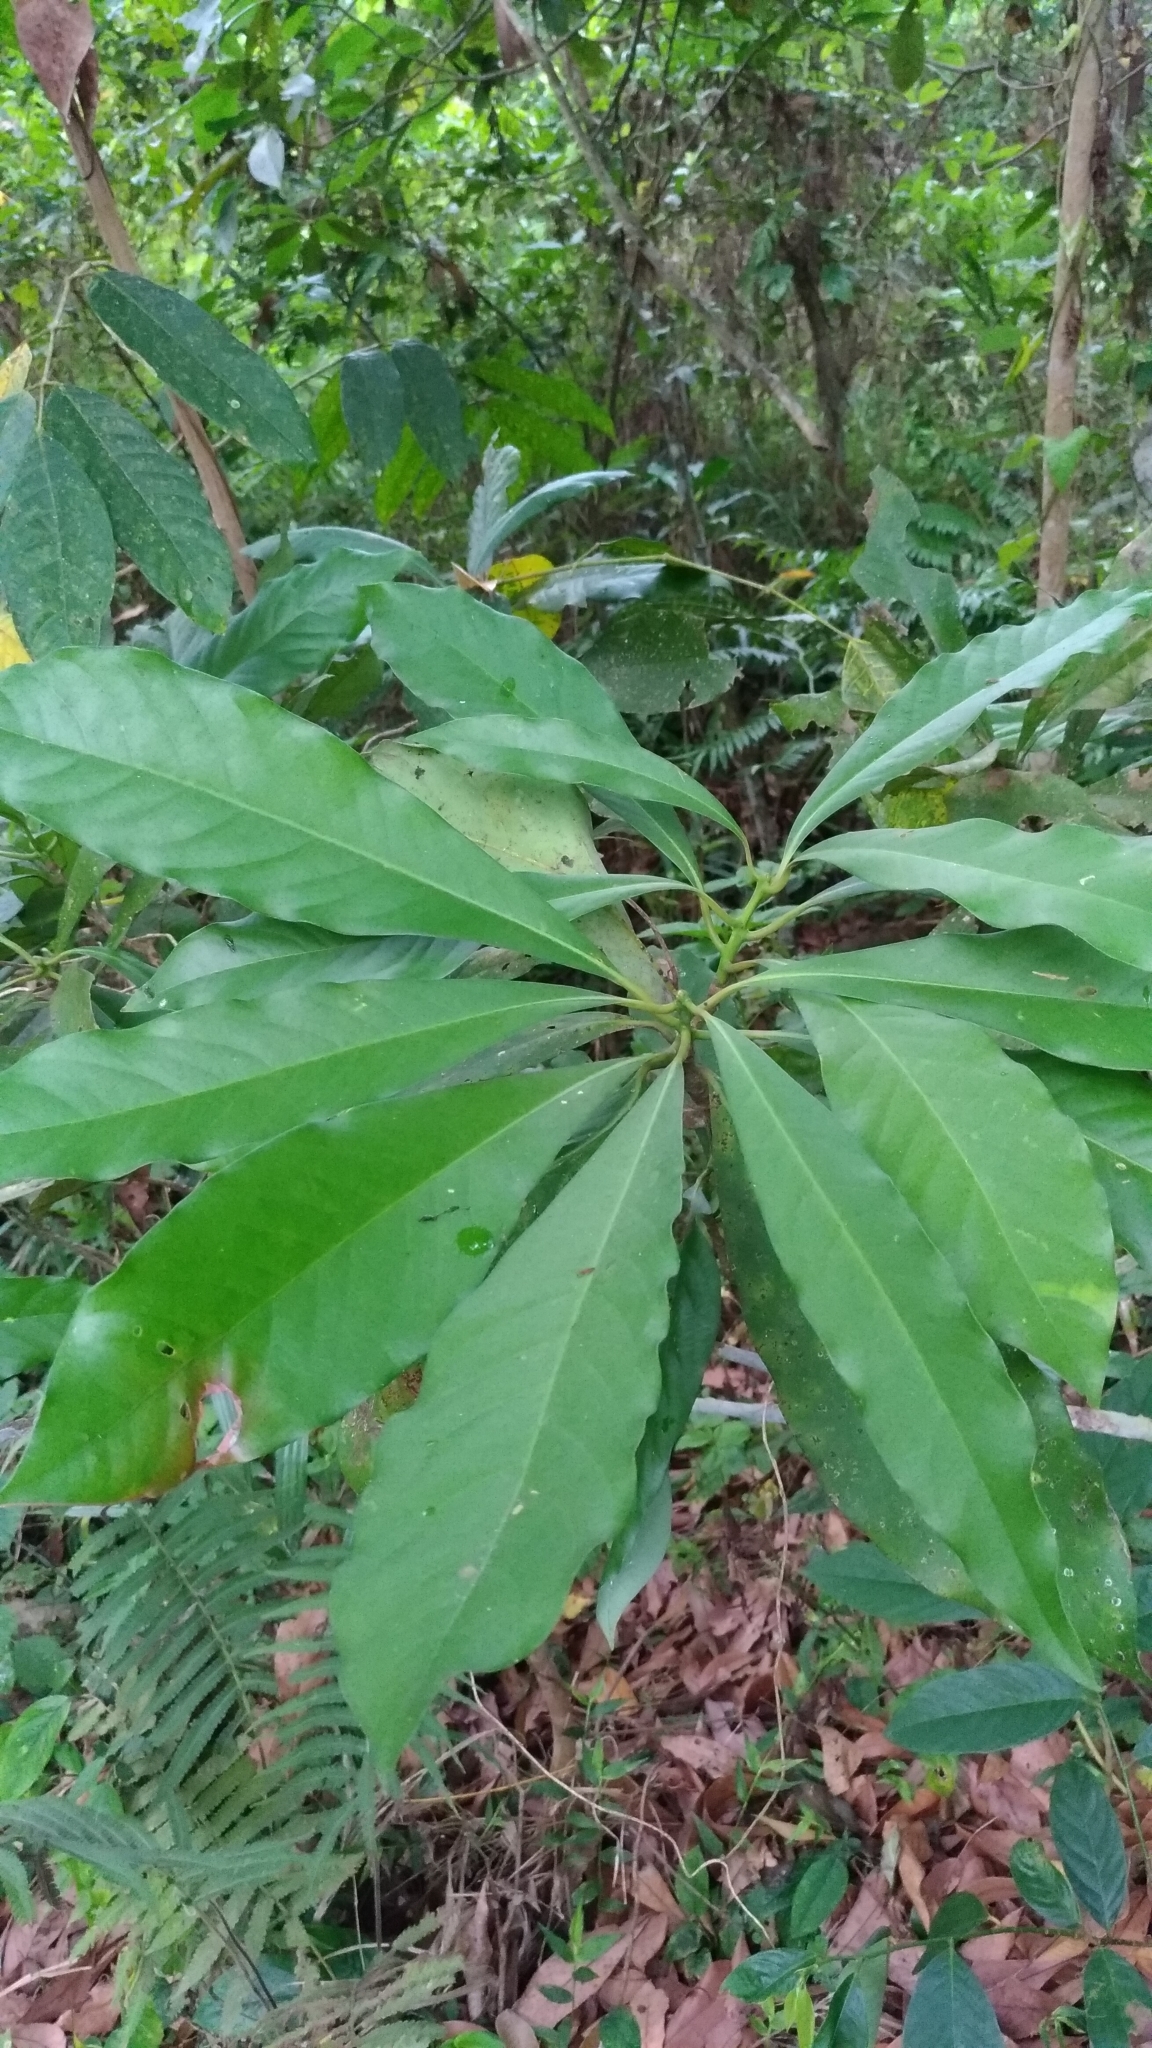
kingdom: Plantae
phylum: Tracheophyta
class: Magnoliopsida
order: Laurales
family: Lauraceae
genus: Machilus
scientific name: Machilus japonica
